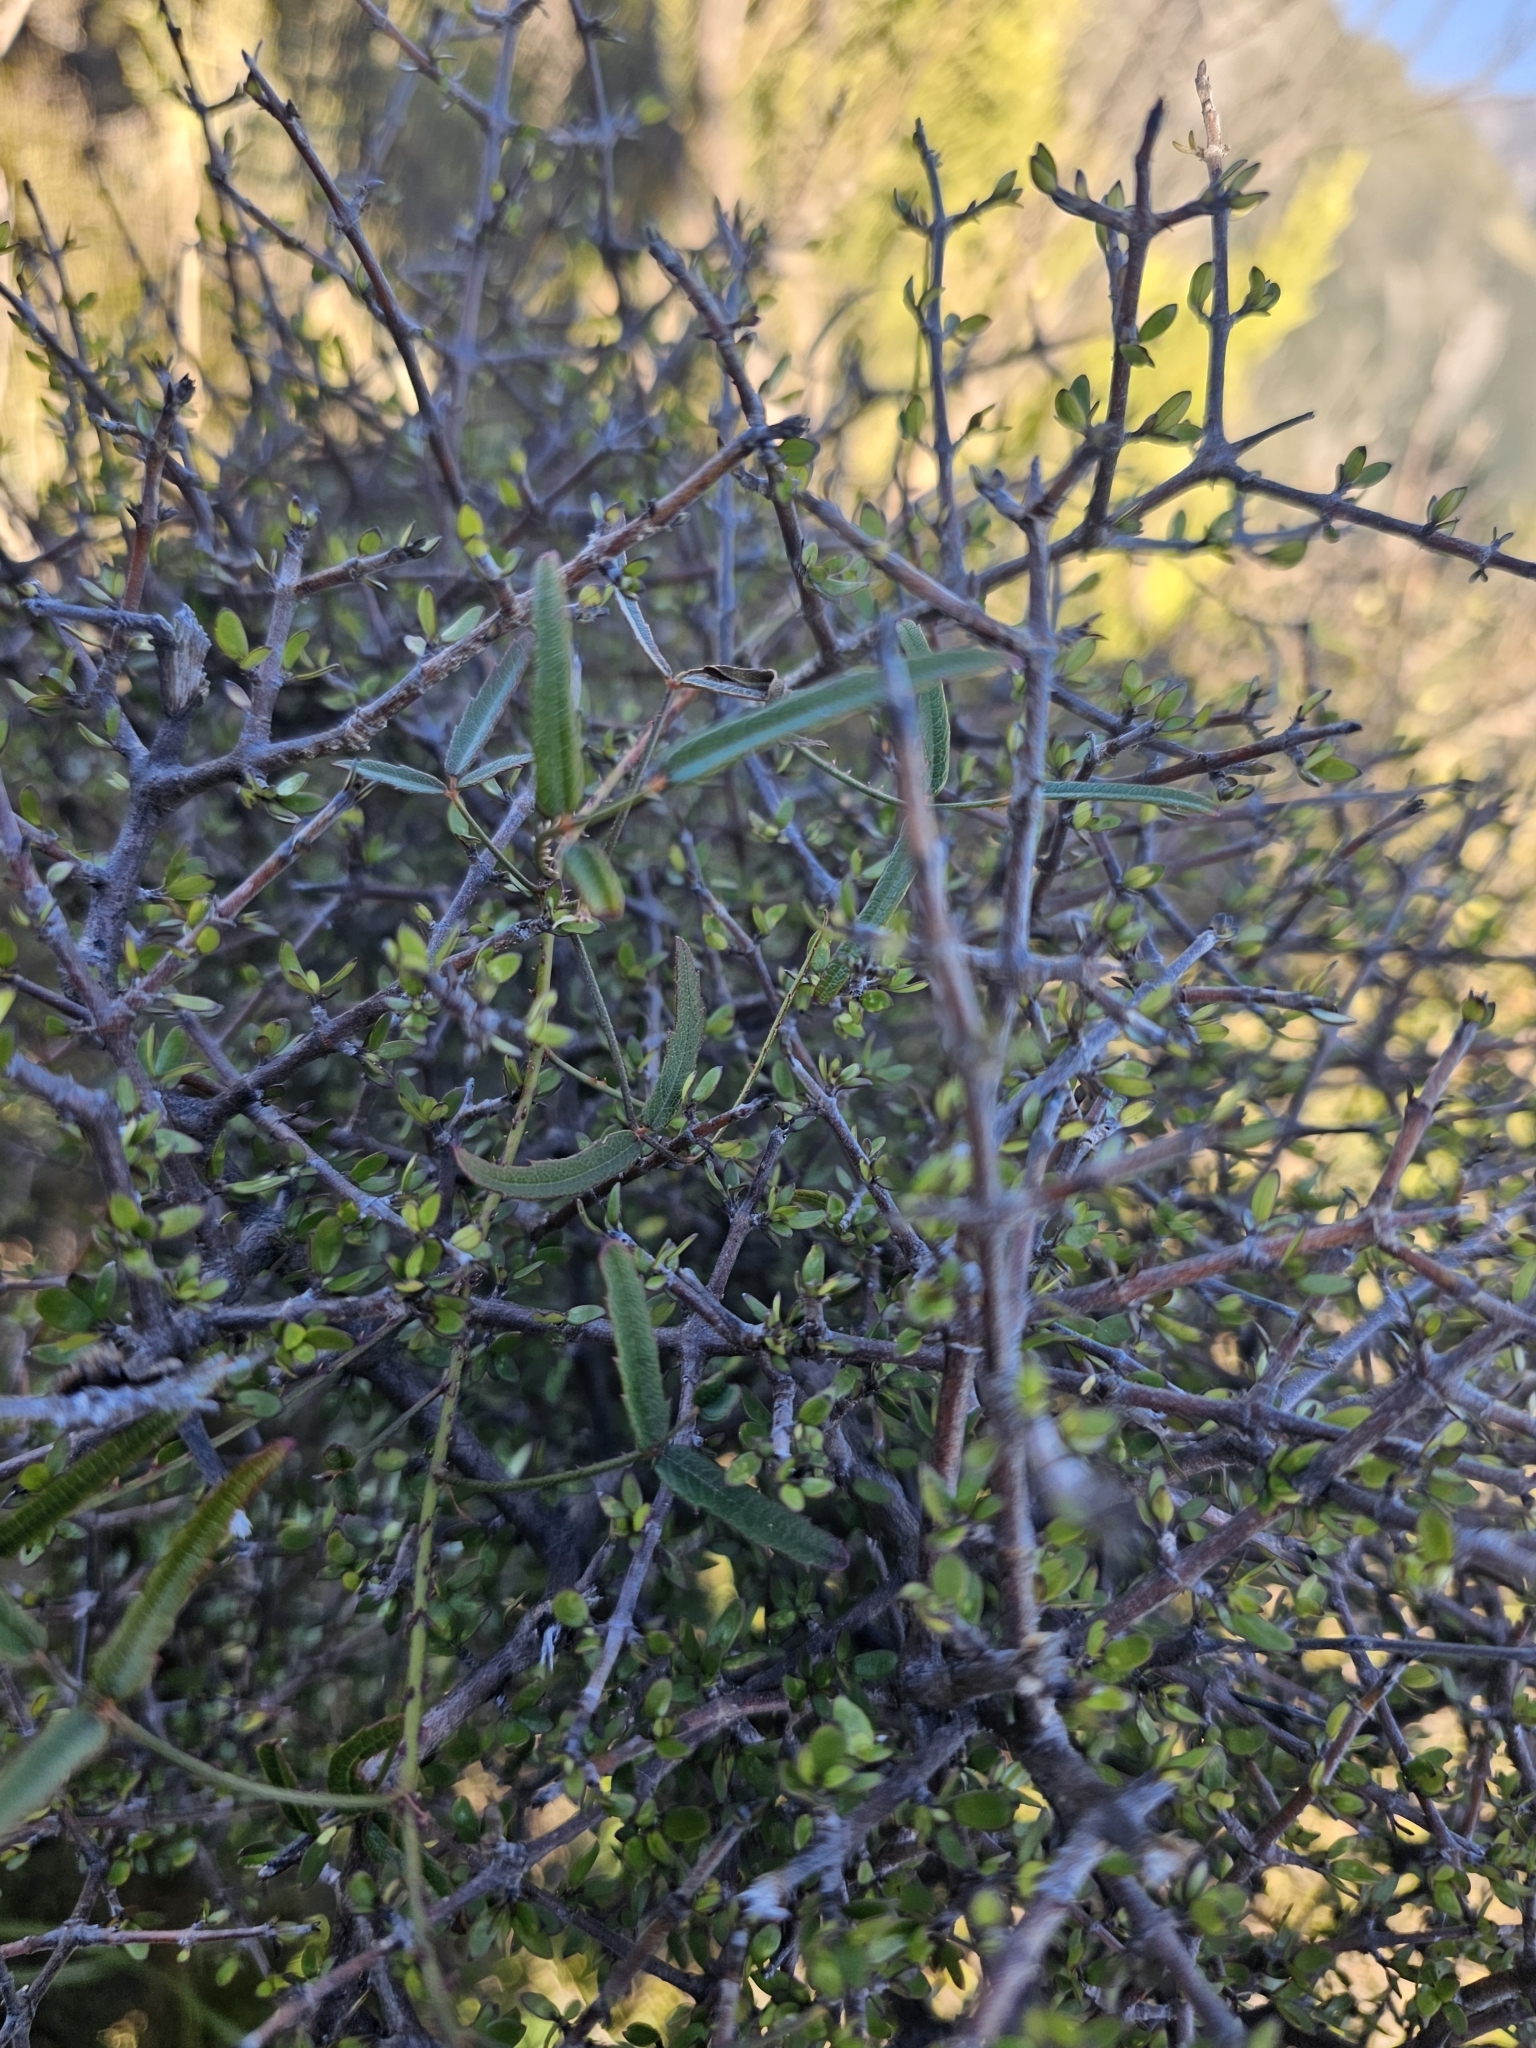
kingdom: Plantae
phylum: Tracheophyta
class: Magnoliopsida
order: Rosales
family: Rosaceae
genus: Rubus
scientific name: Rubus schmidelioides
